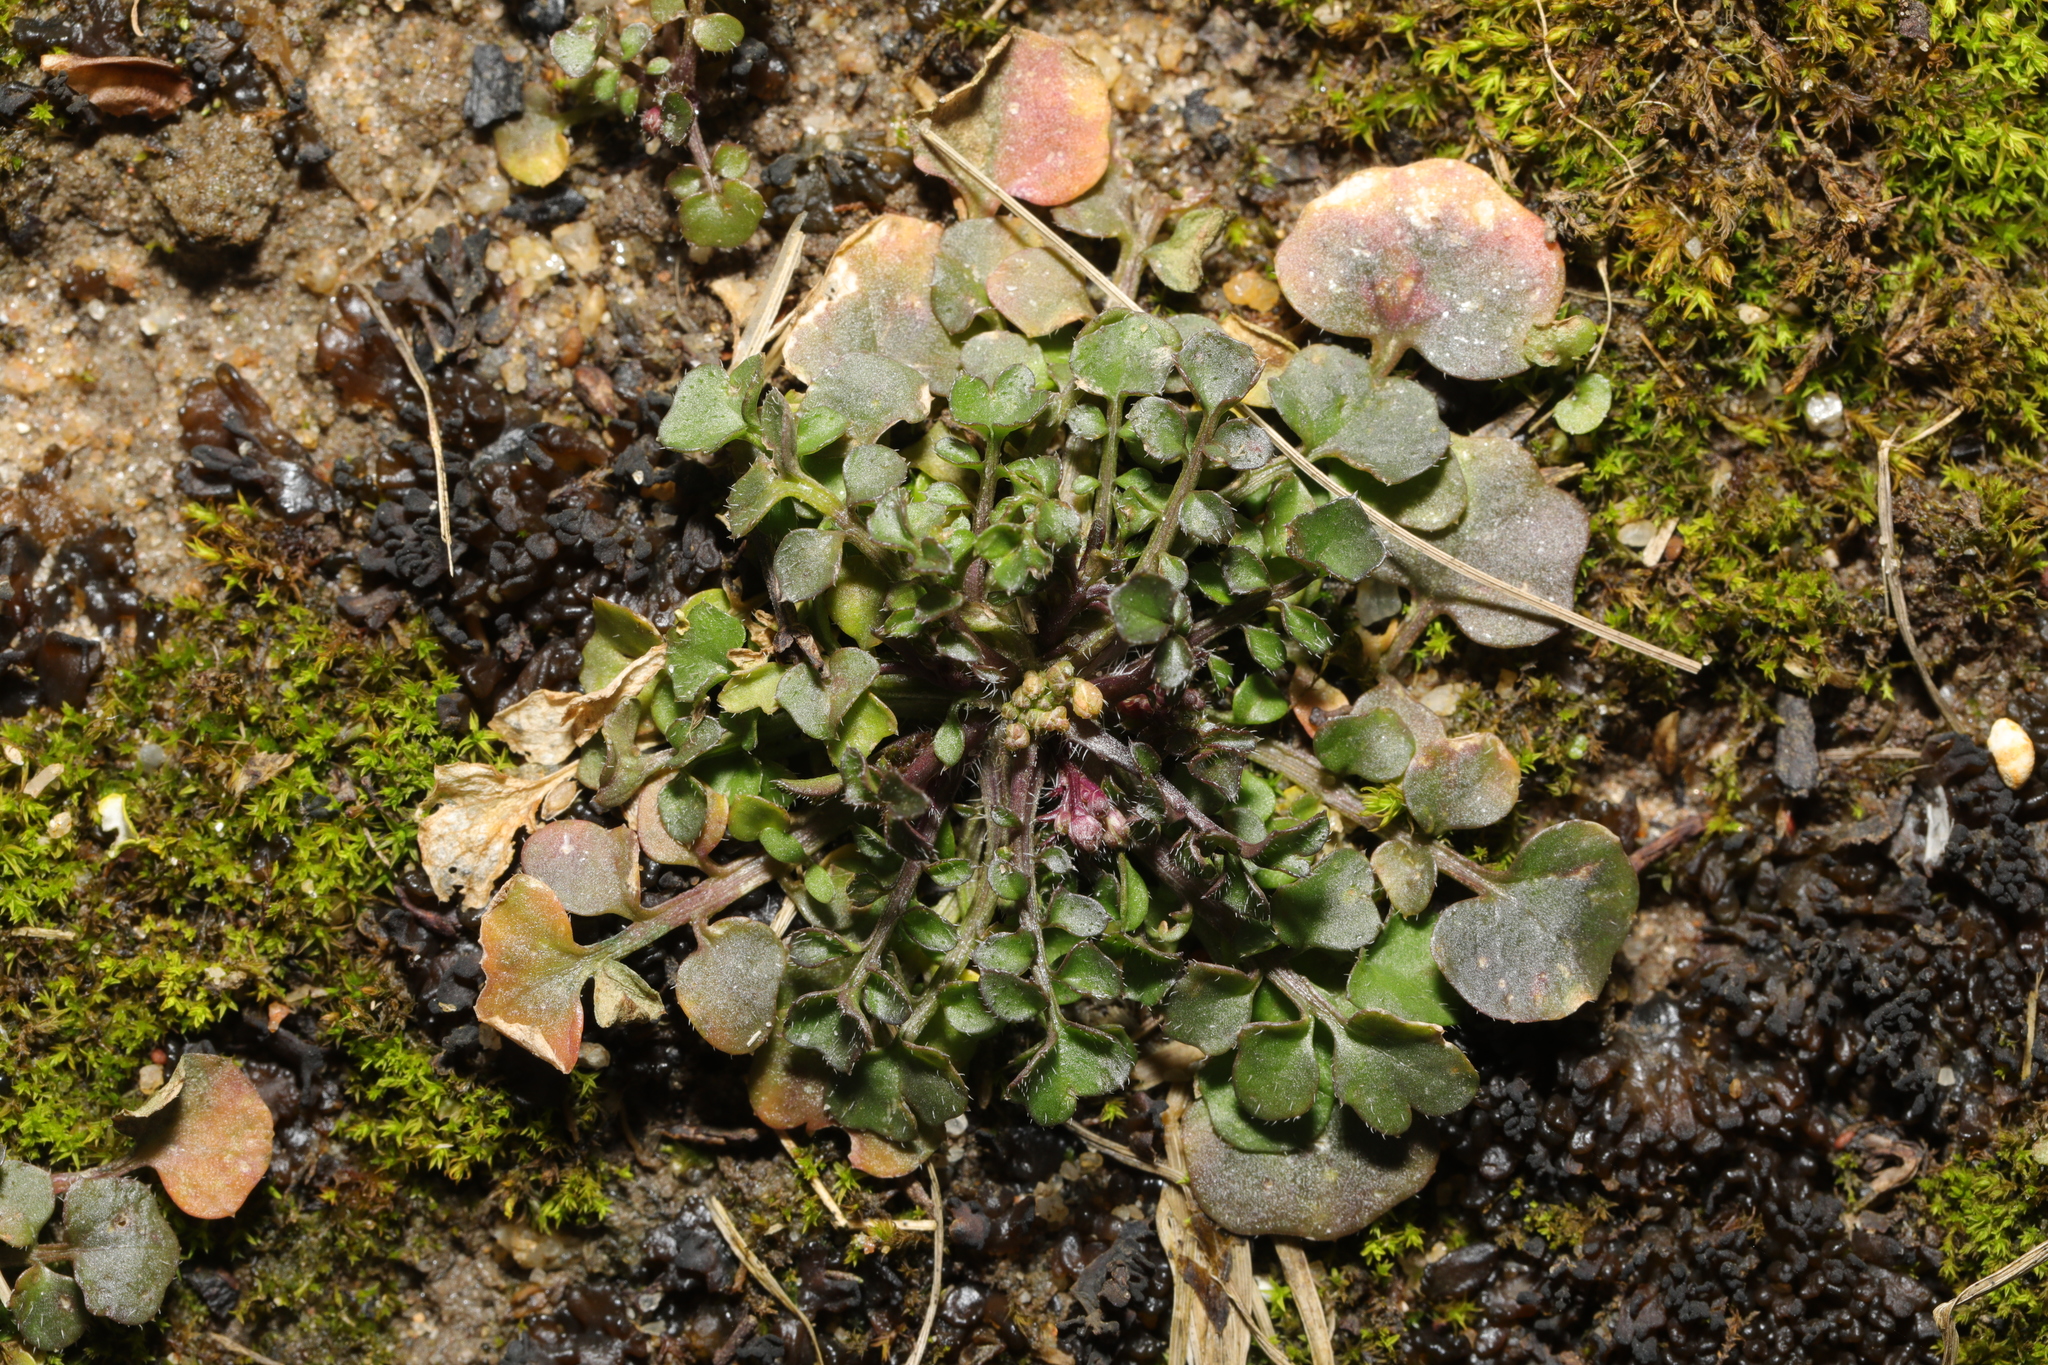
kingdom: Plantae
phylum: Tracheophyta
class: Magnoliopsida
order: Brassicales
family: Brassicaceae
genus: Cardamine
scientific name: Cardamine hirsuta
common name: Hairy bittercress
